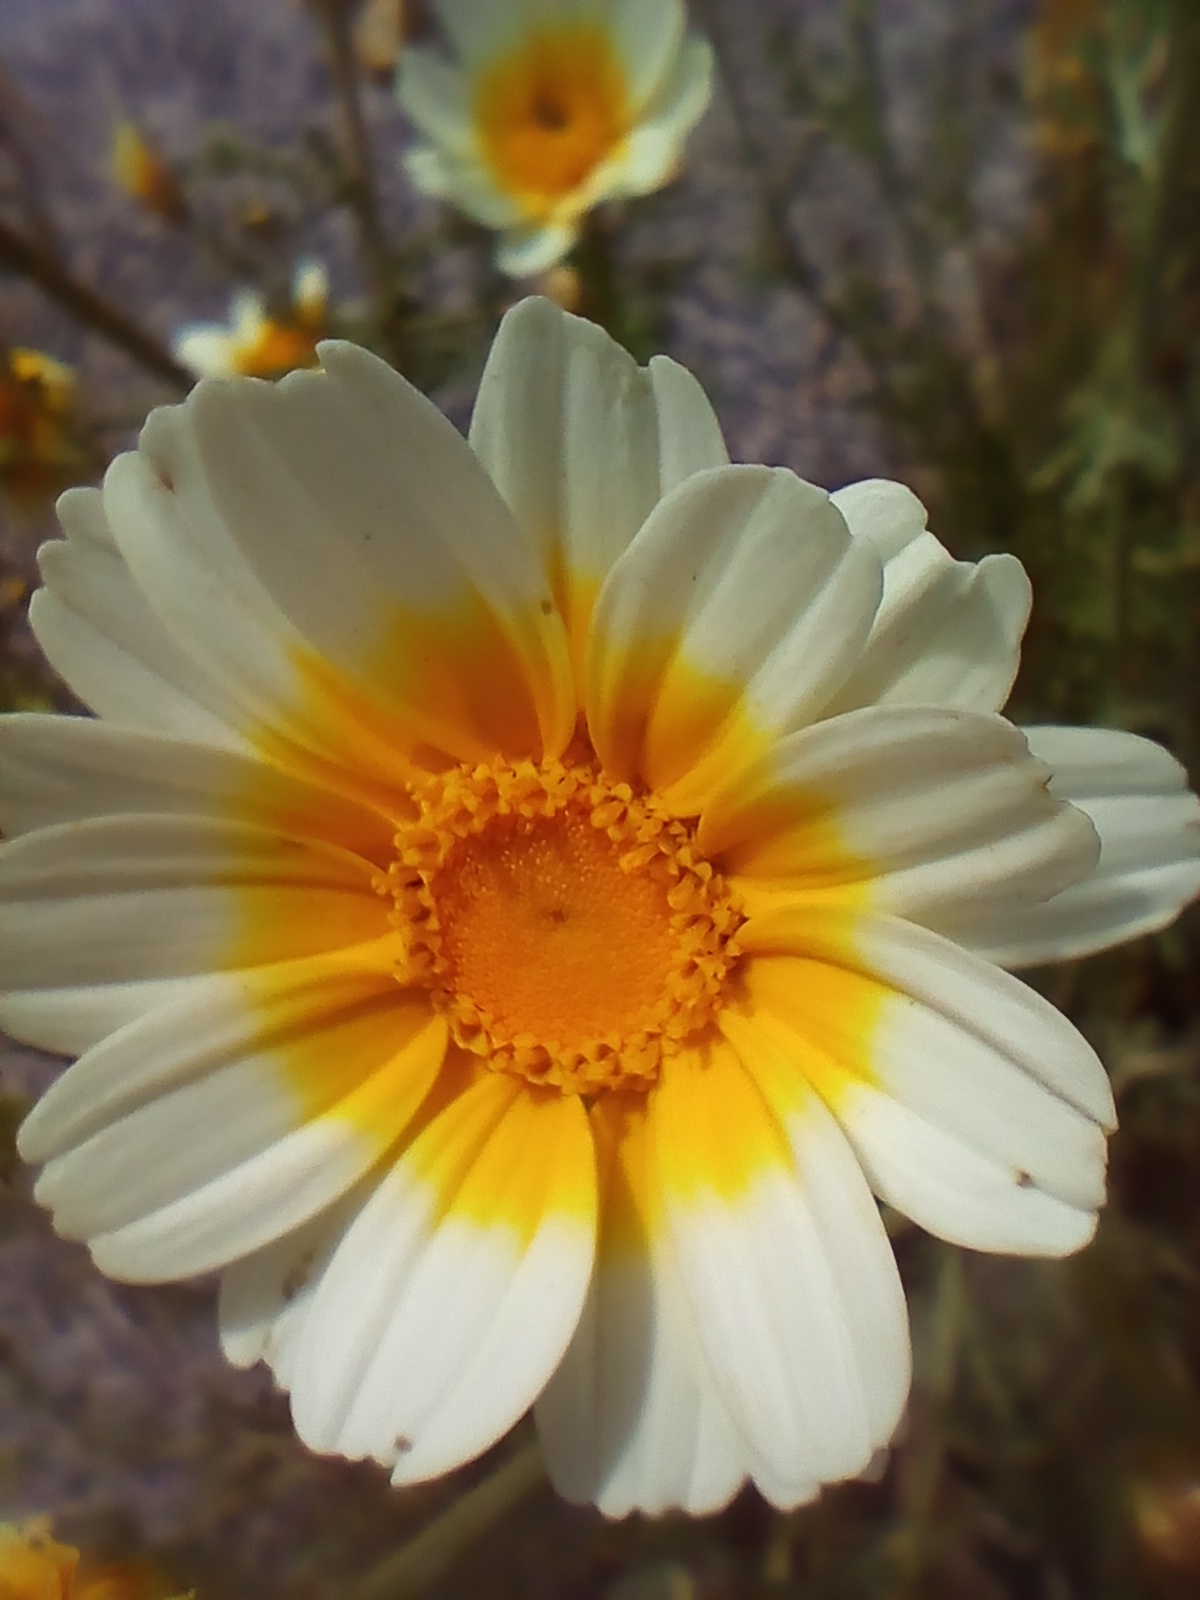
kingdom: Plantae
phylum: Tracheophyta
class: Magnoliopsida
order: Asterales
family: Asteraceae
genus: Glebionis
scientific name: Glebionis coronaria
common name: Crowndaisy
